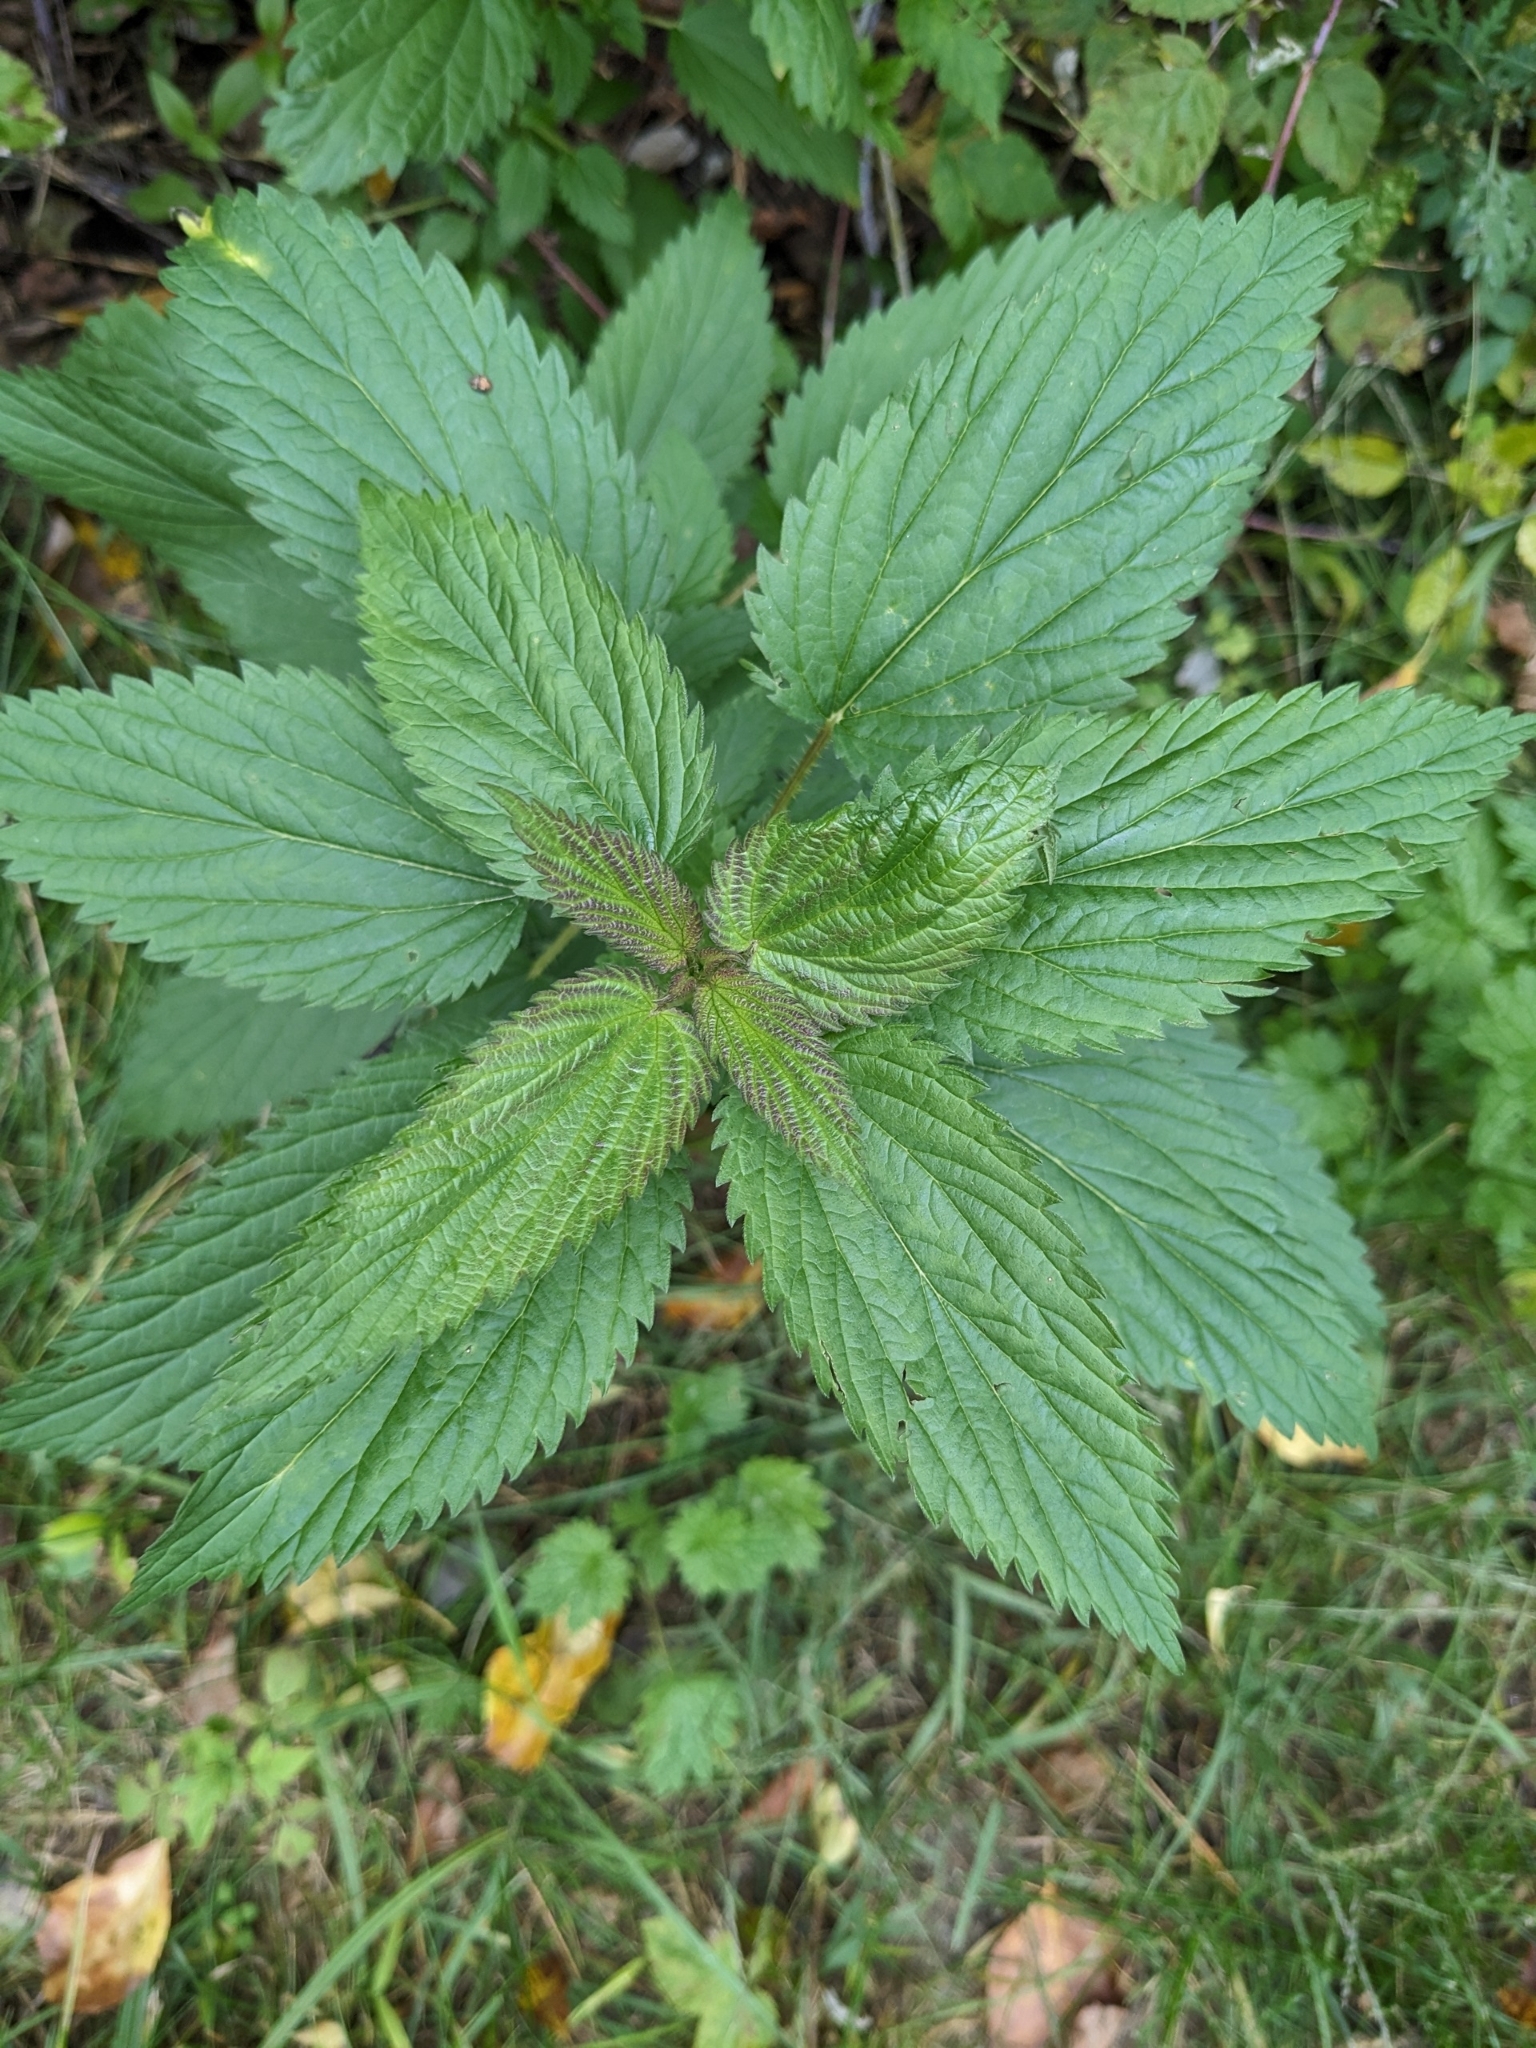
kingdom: Plantae
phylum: Tracheophyta
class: Magnoliopsida
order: Rosales
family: Urticaceae
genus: Urtica
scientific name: Urtica dioica
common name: Common nettle
